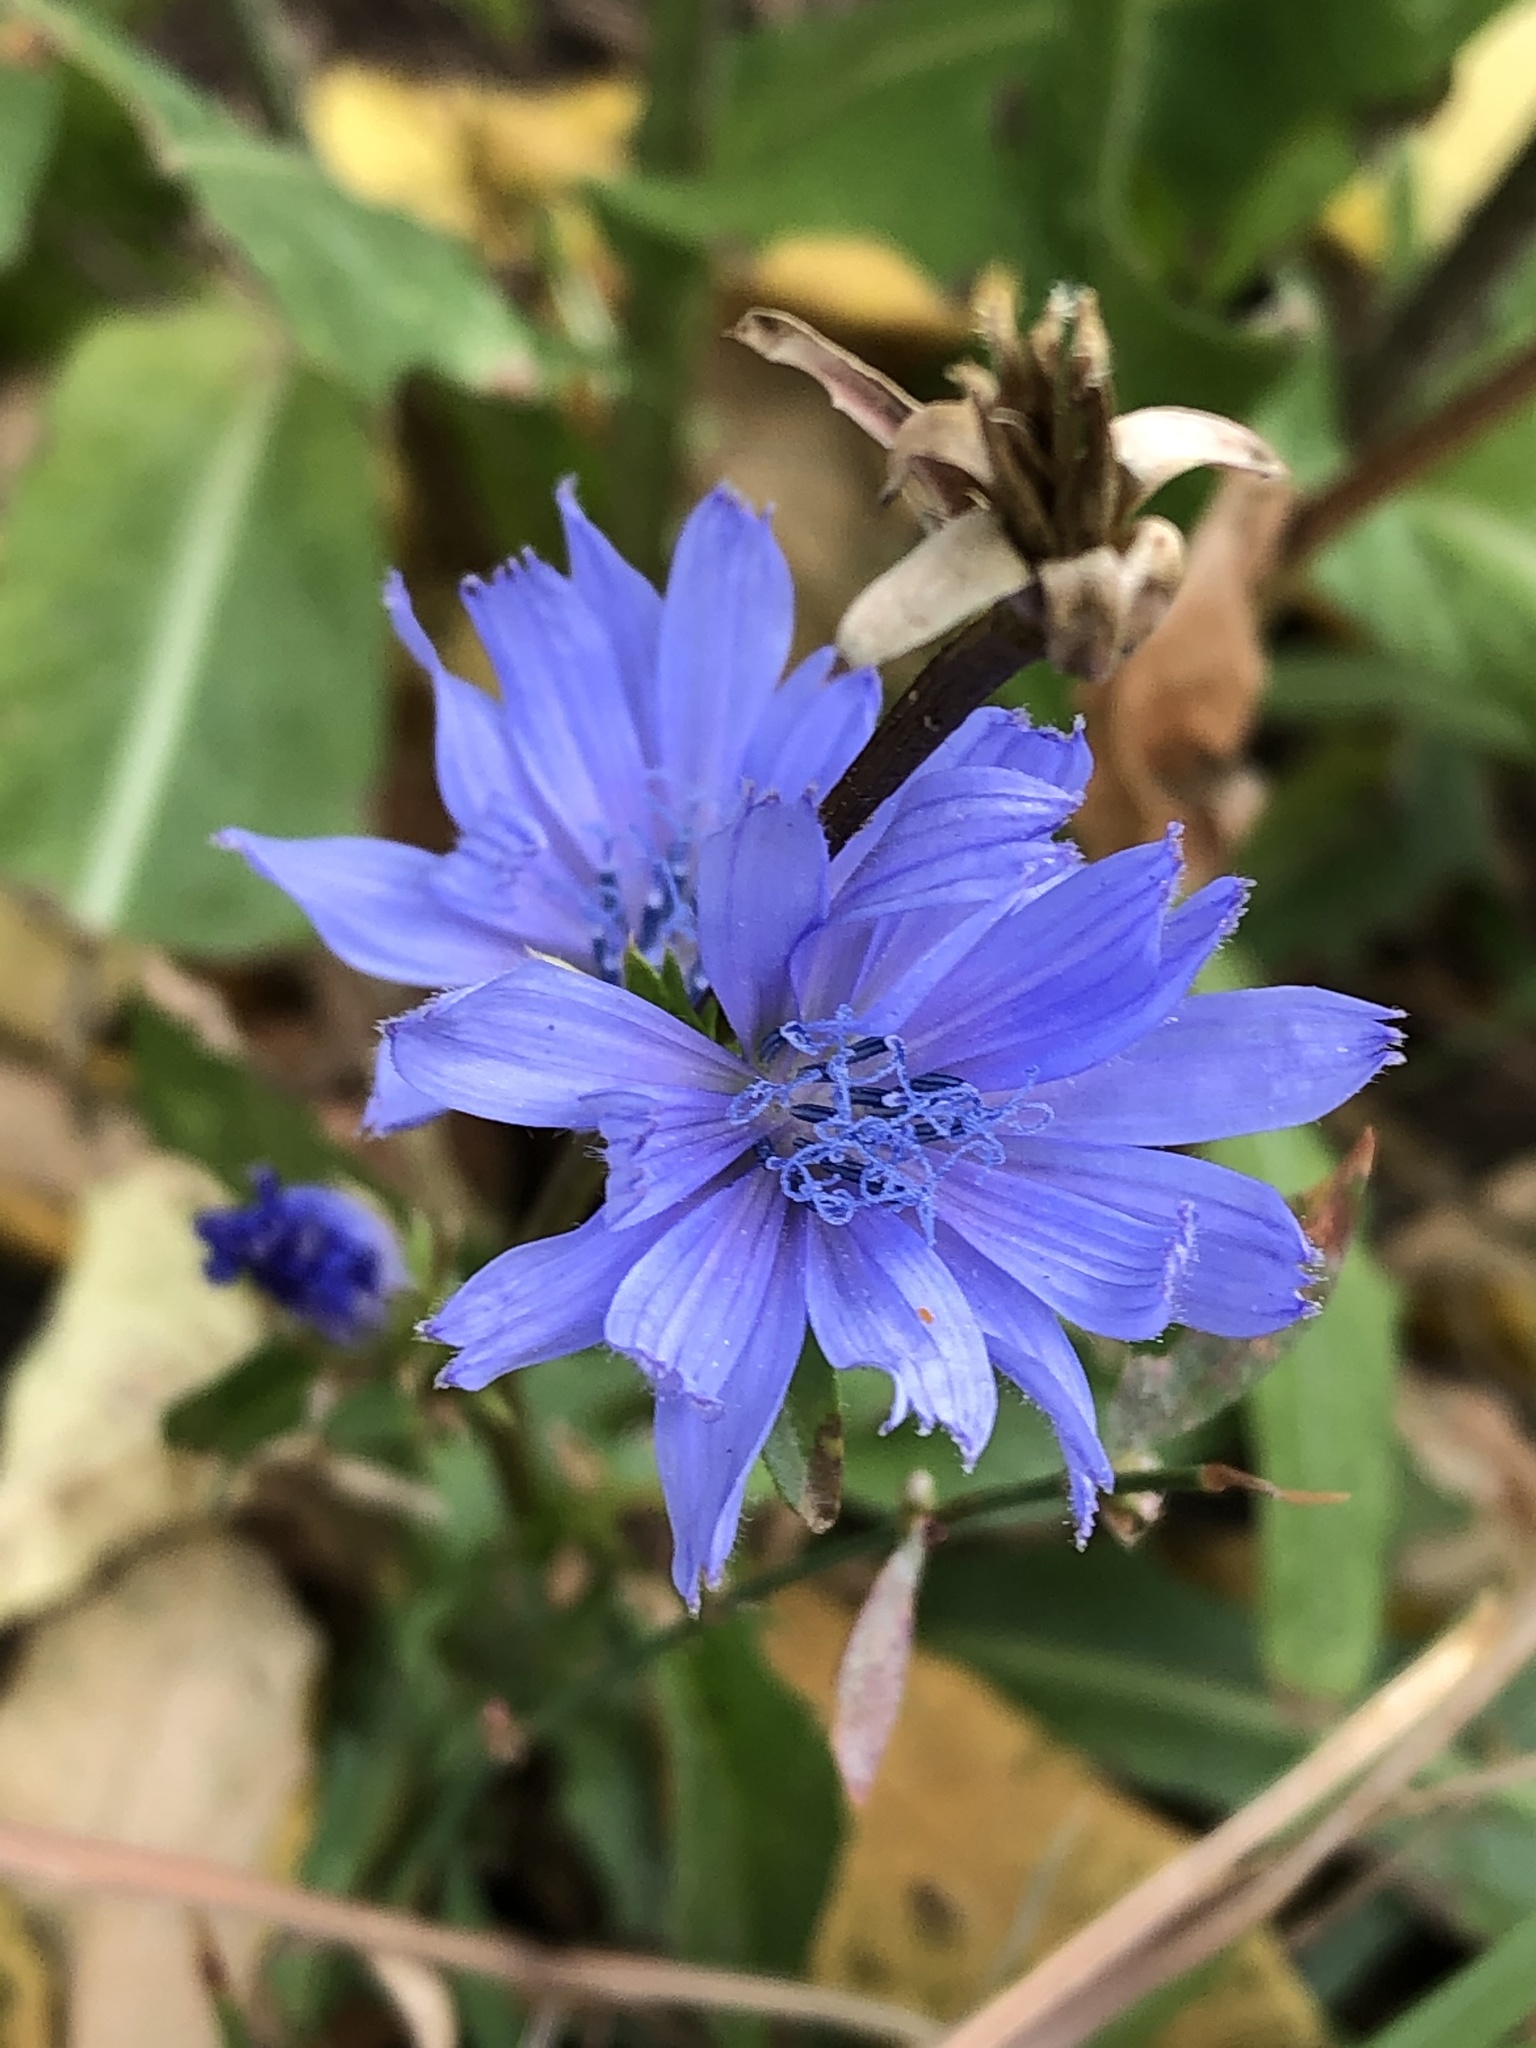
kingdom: Plantae
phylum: Tracheophyta
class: Magnoliopsida
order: Asterales
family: Asteraceae
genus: Cichorium
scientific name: Cichorium intybus
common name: Chicory
